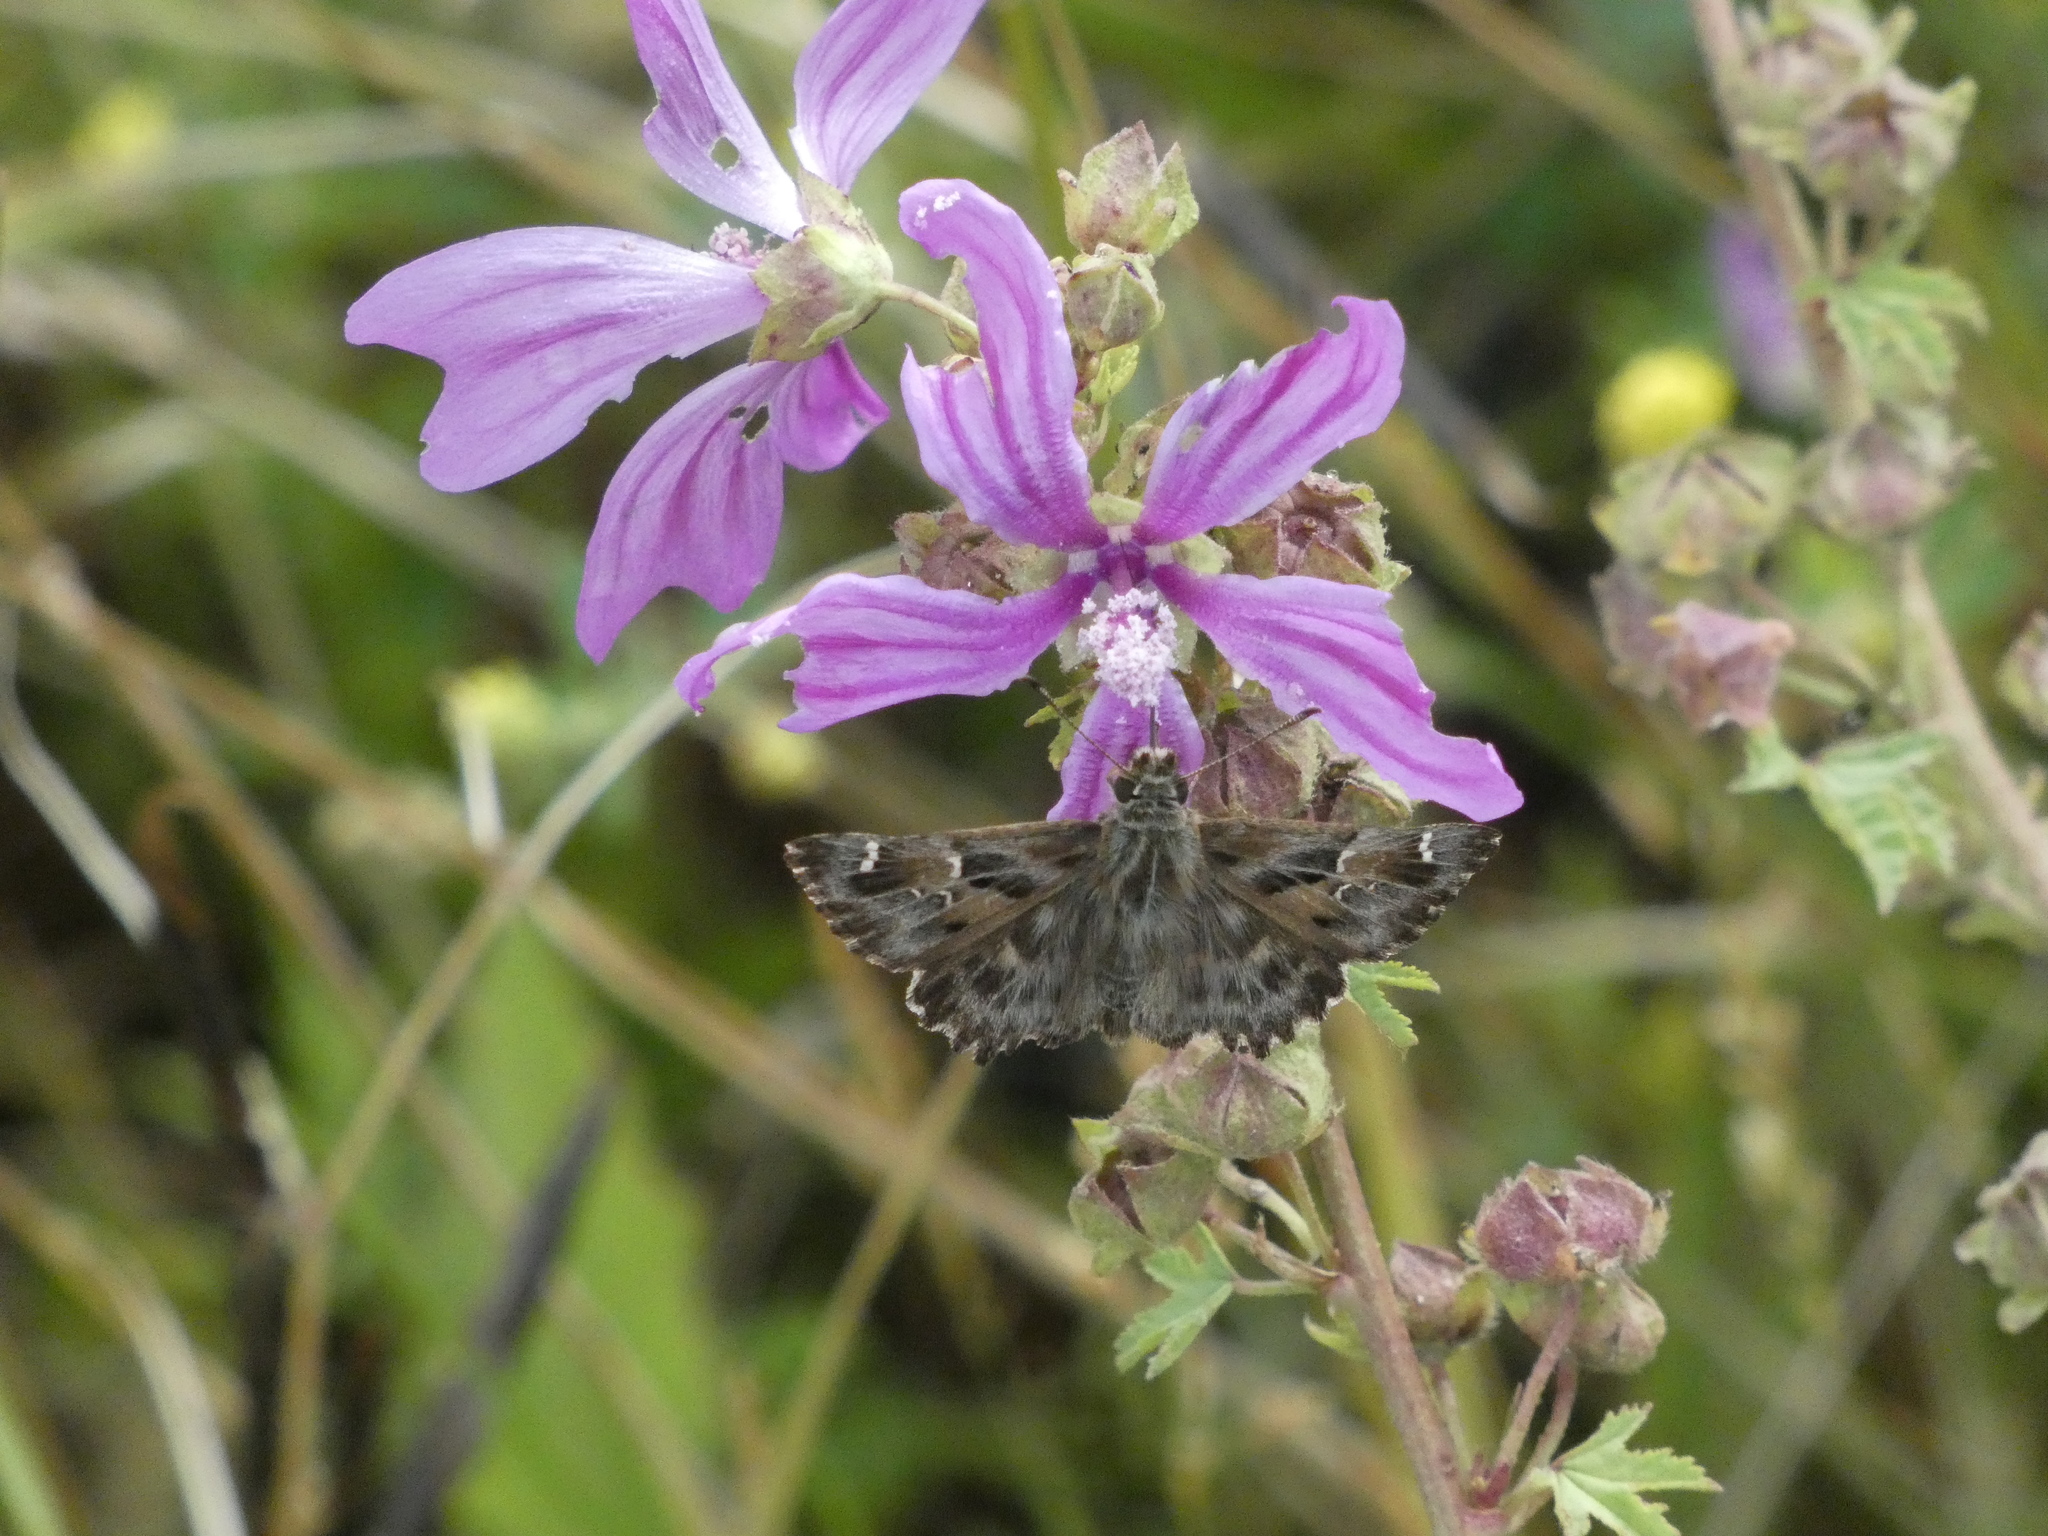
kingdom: Animalia
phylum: Arthropoda
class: Insecta
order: Lepidoptera
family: Hesperiidae
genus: Carcharodus
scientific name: Carcharodus alceae
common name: Mallow skipper
